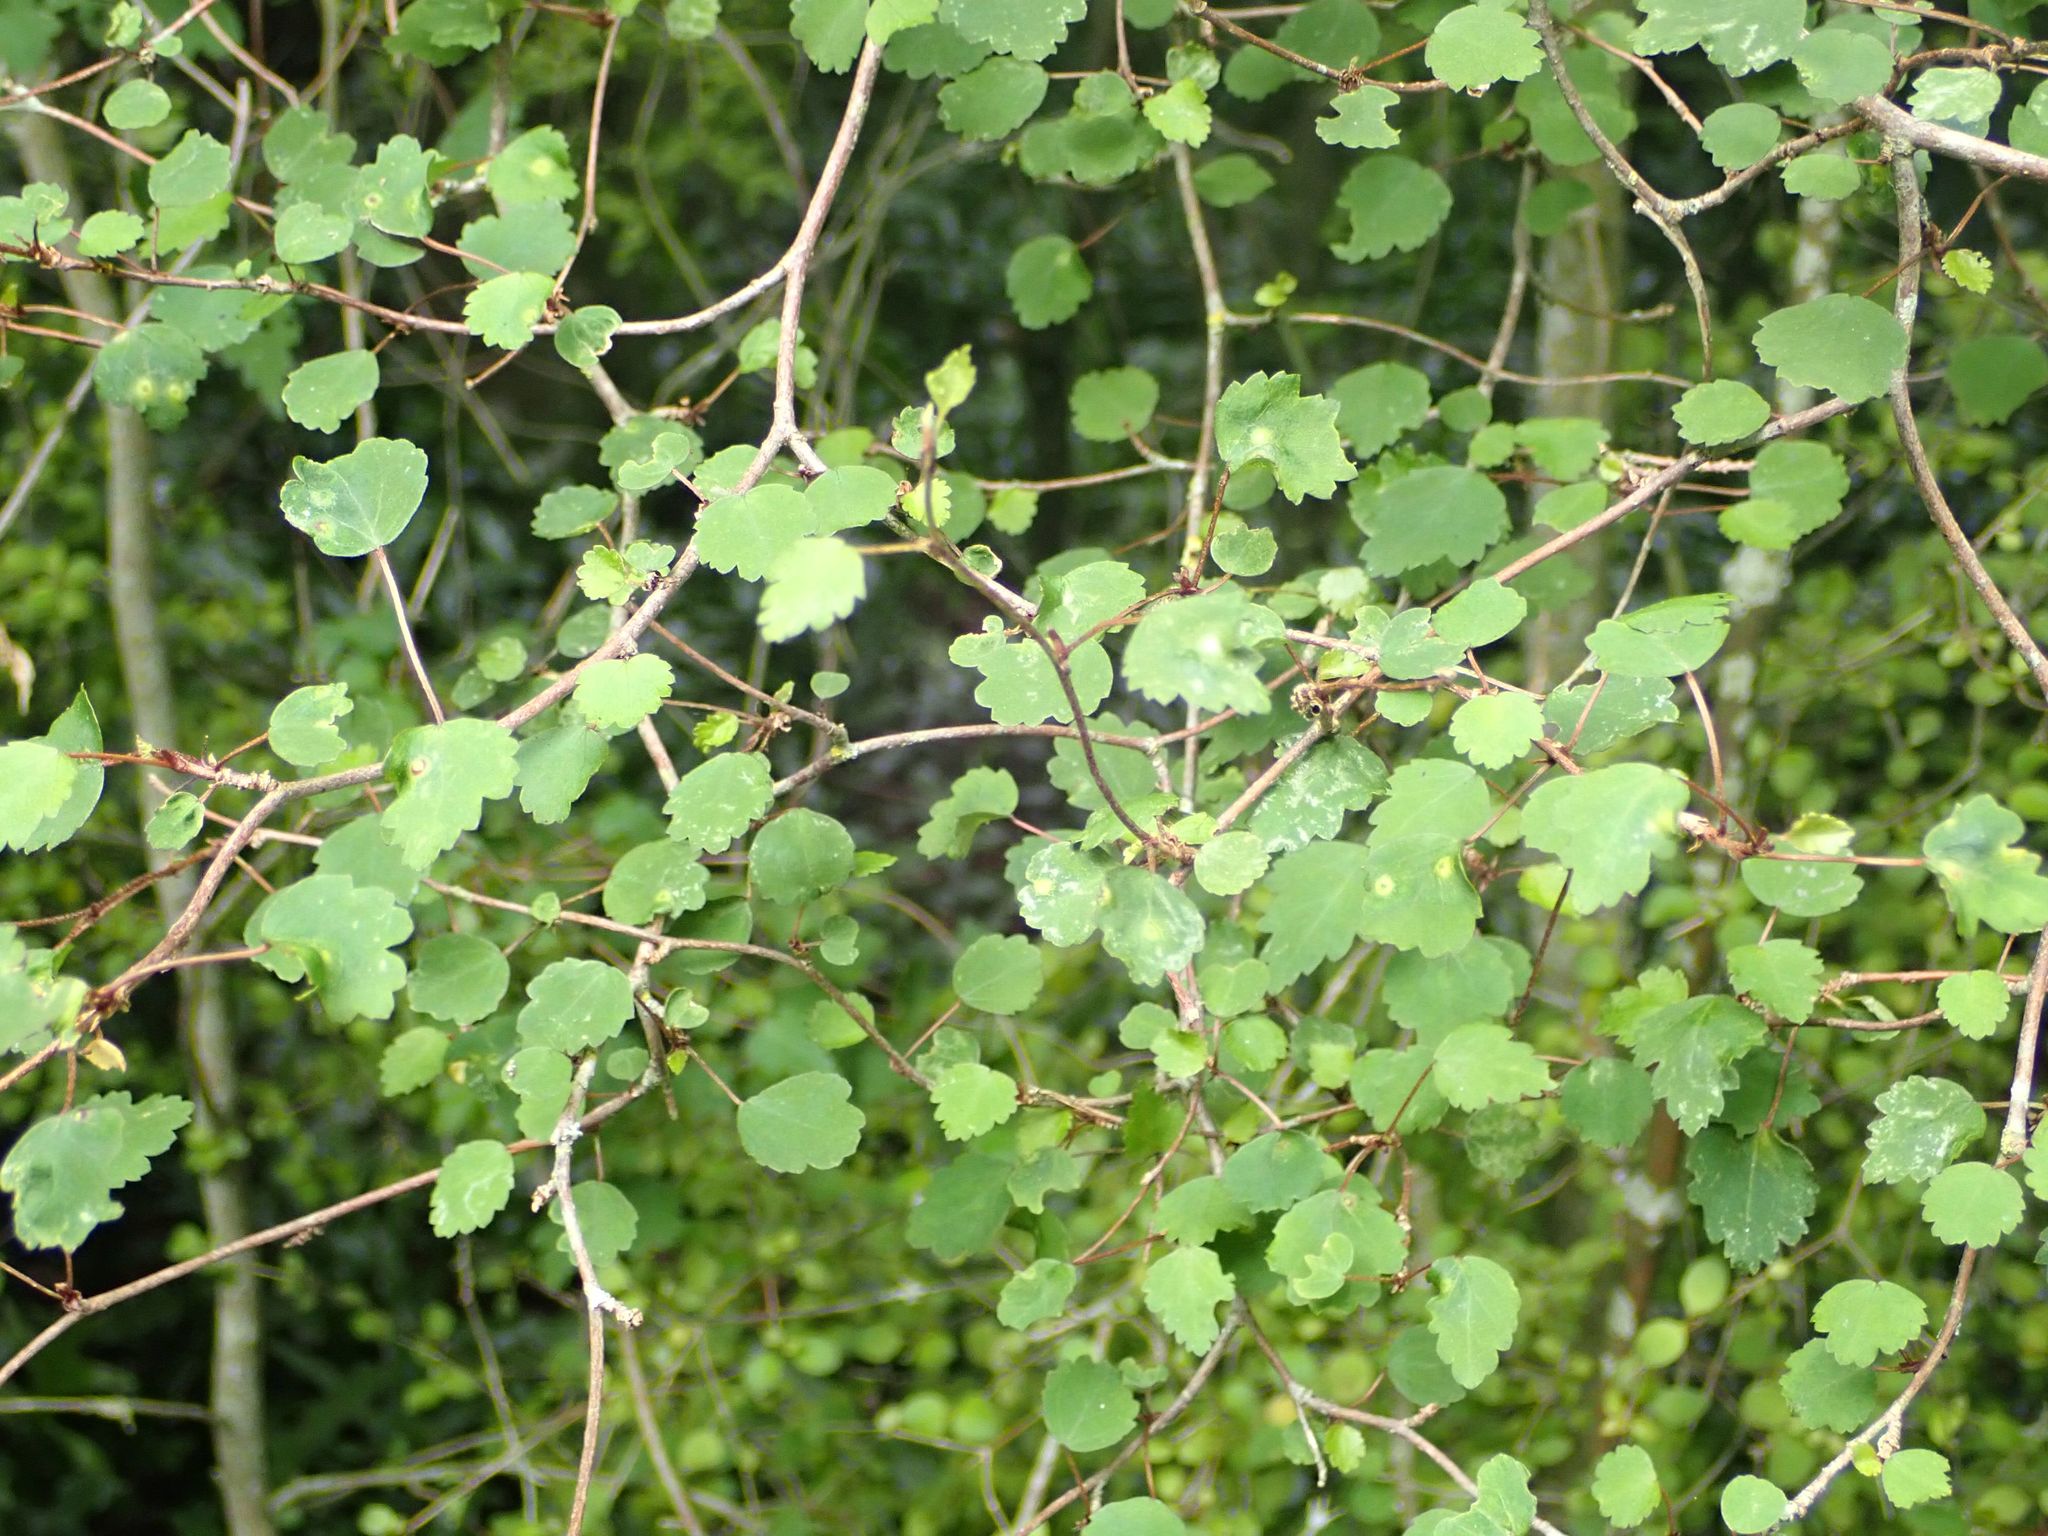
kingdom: Plantae
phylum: Tracheophyta
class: Magnoliopsida
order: Malvales
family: Malvaceae
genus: Plagianthus
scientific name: Plagianthus regius
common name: Manatu
